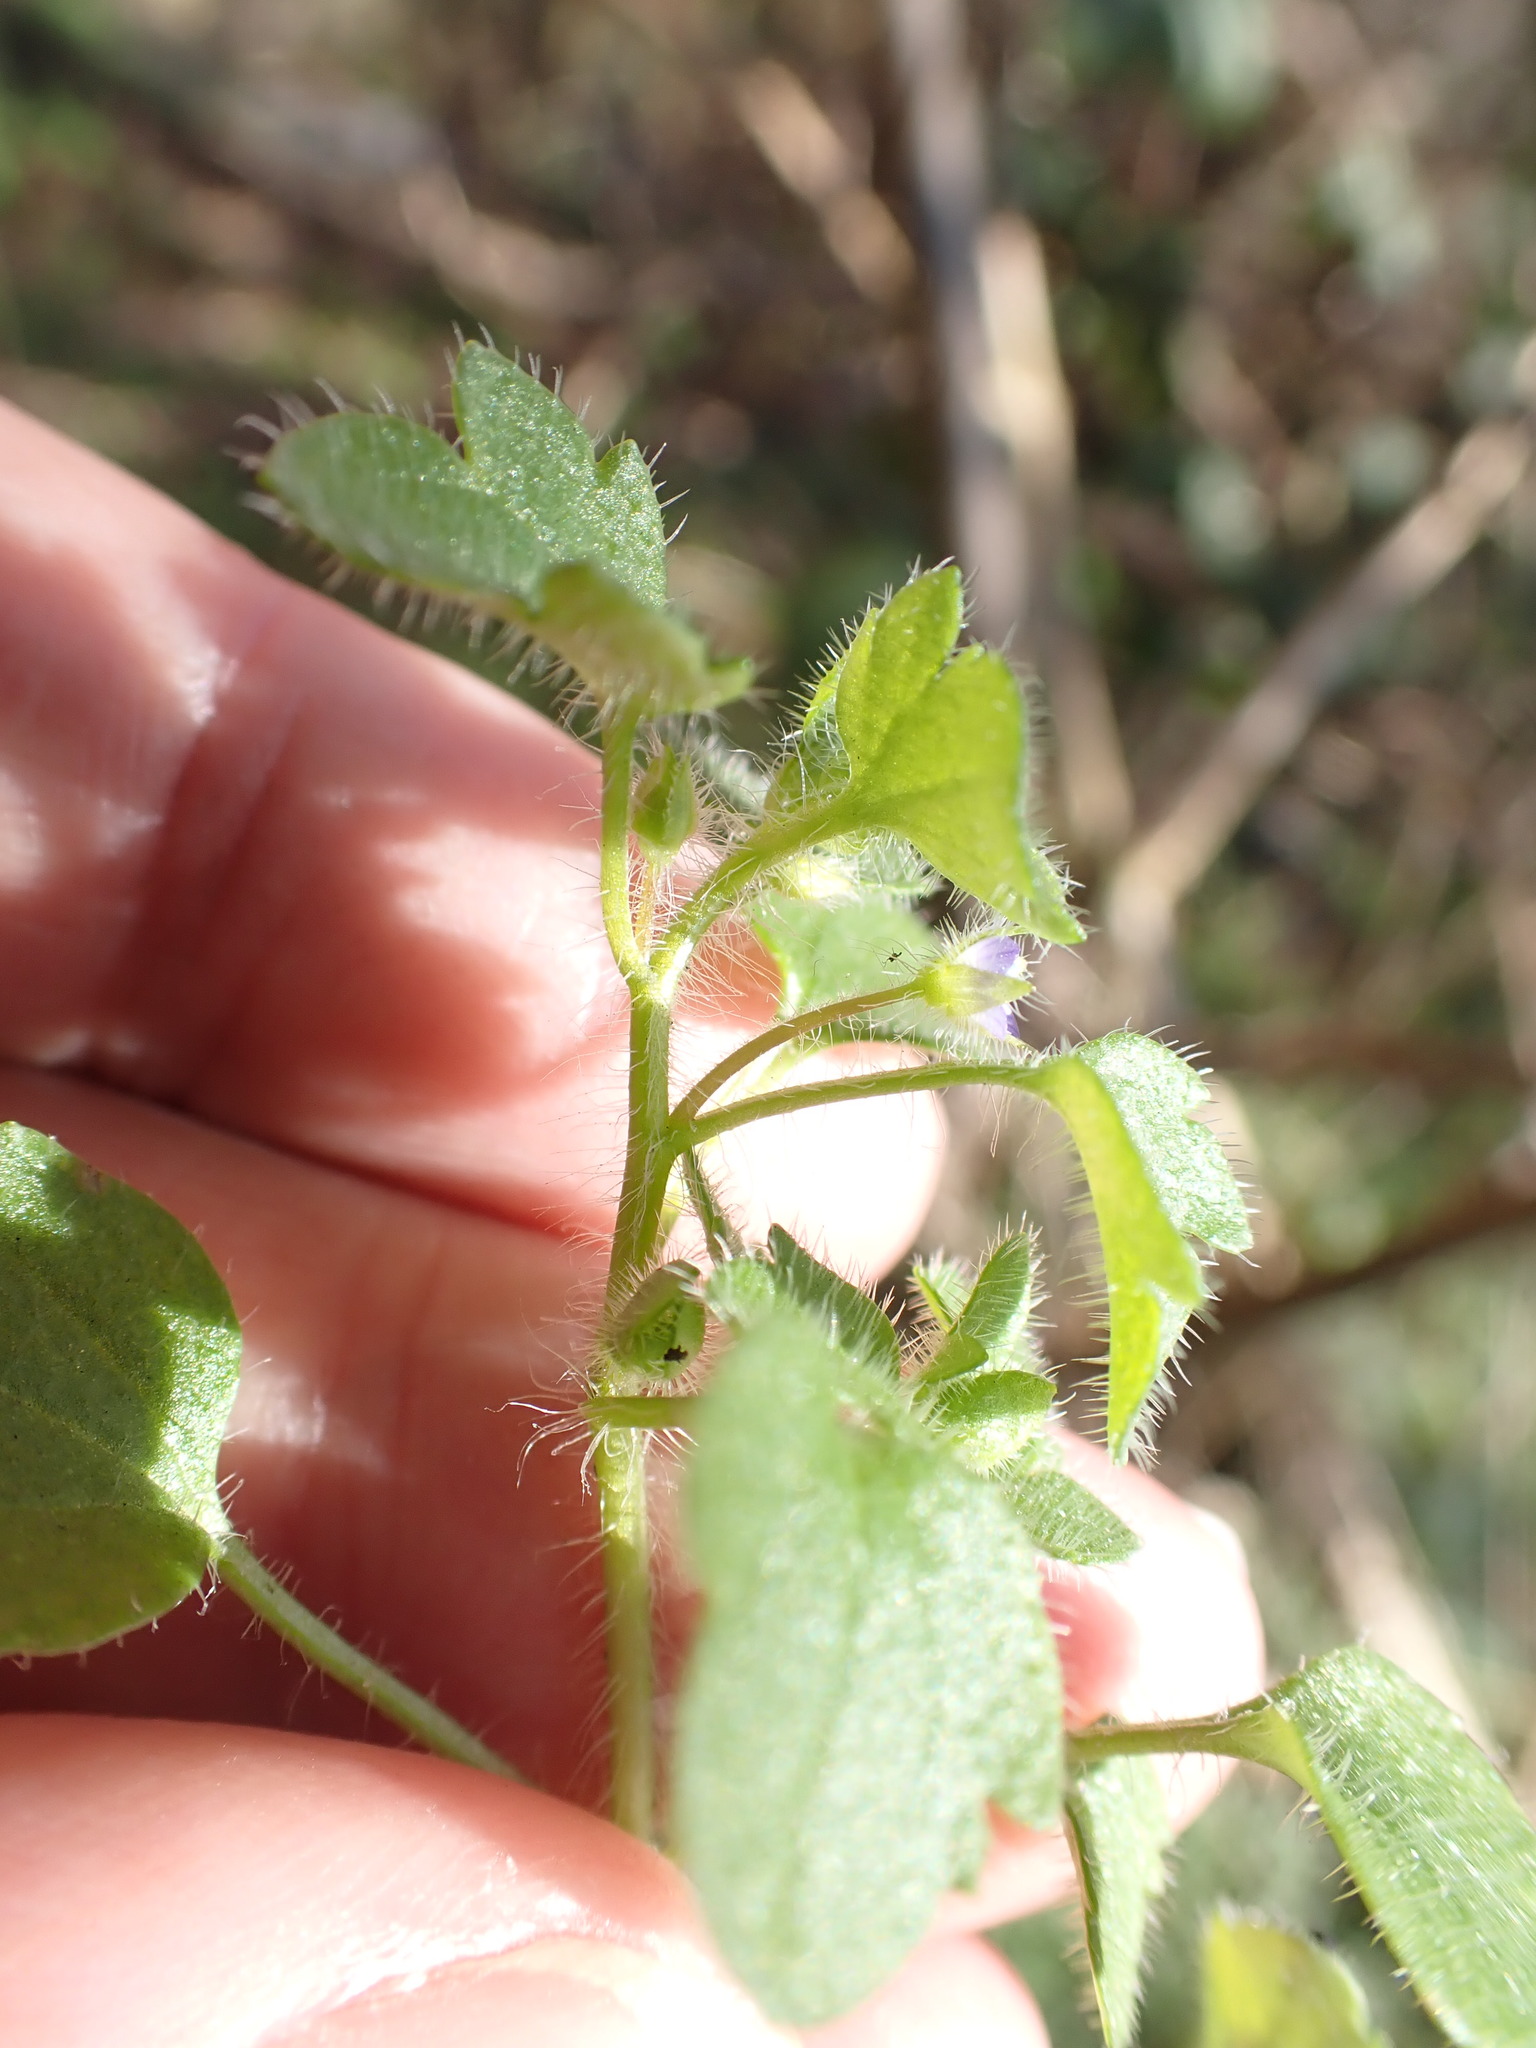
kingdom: Plantae
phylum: Tracheophyta
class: Magnoliopsida
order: Lamiales
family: Plantaginaceae
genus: Veronica
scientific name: Veronica sublobata
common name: False ivy-leaved speedwell
